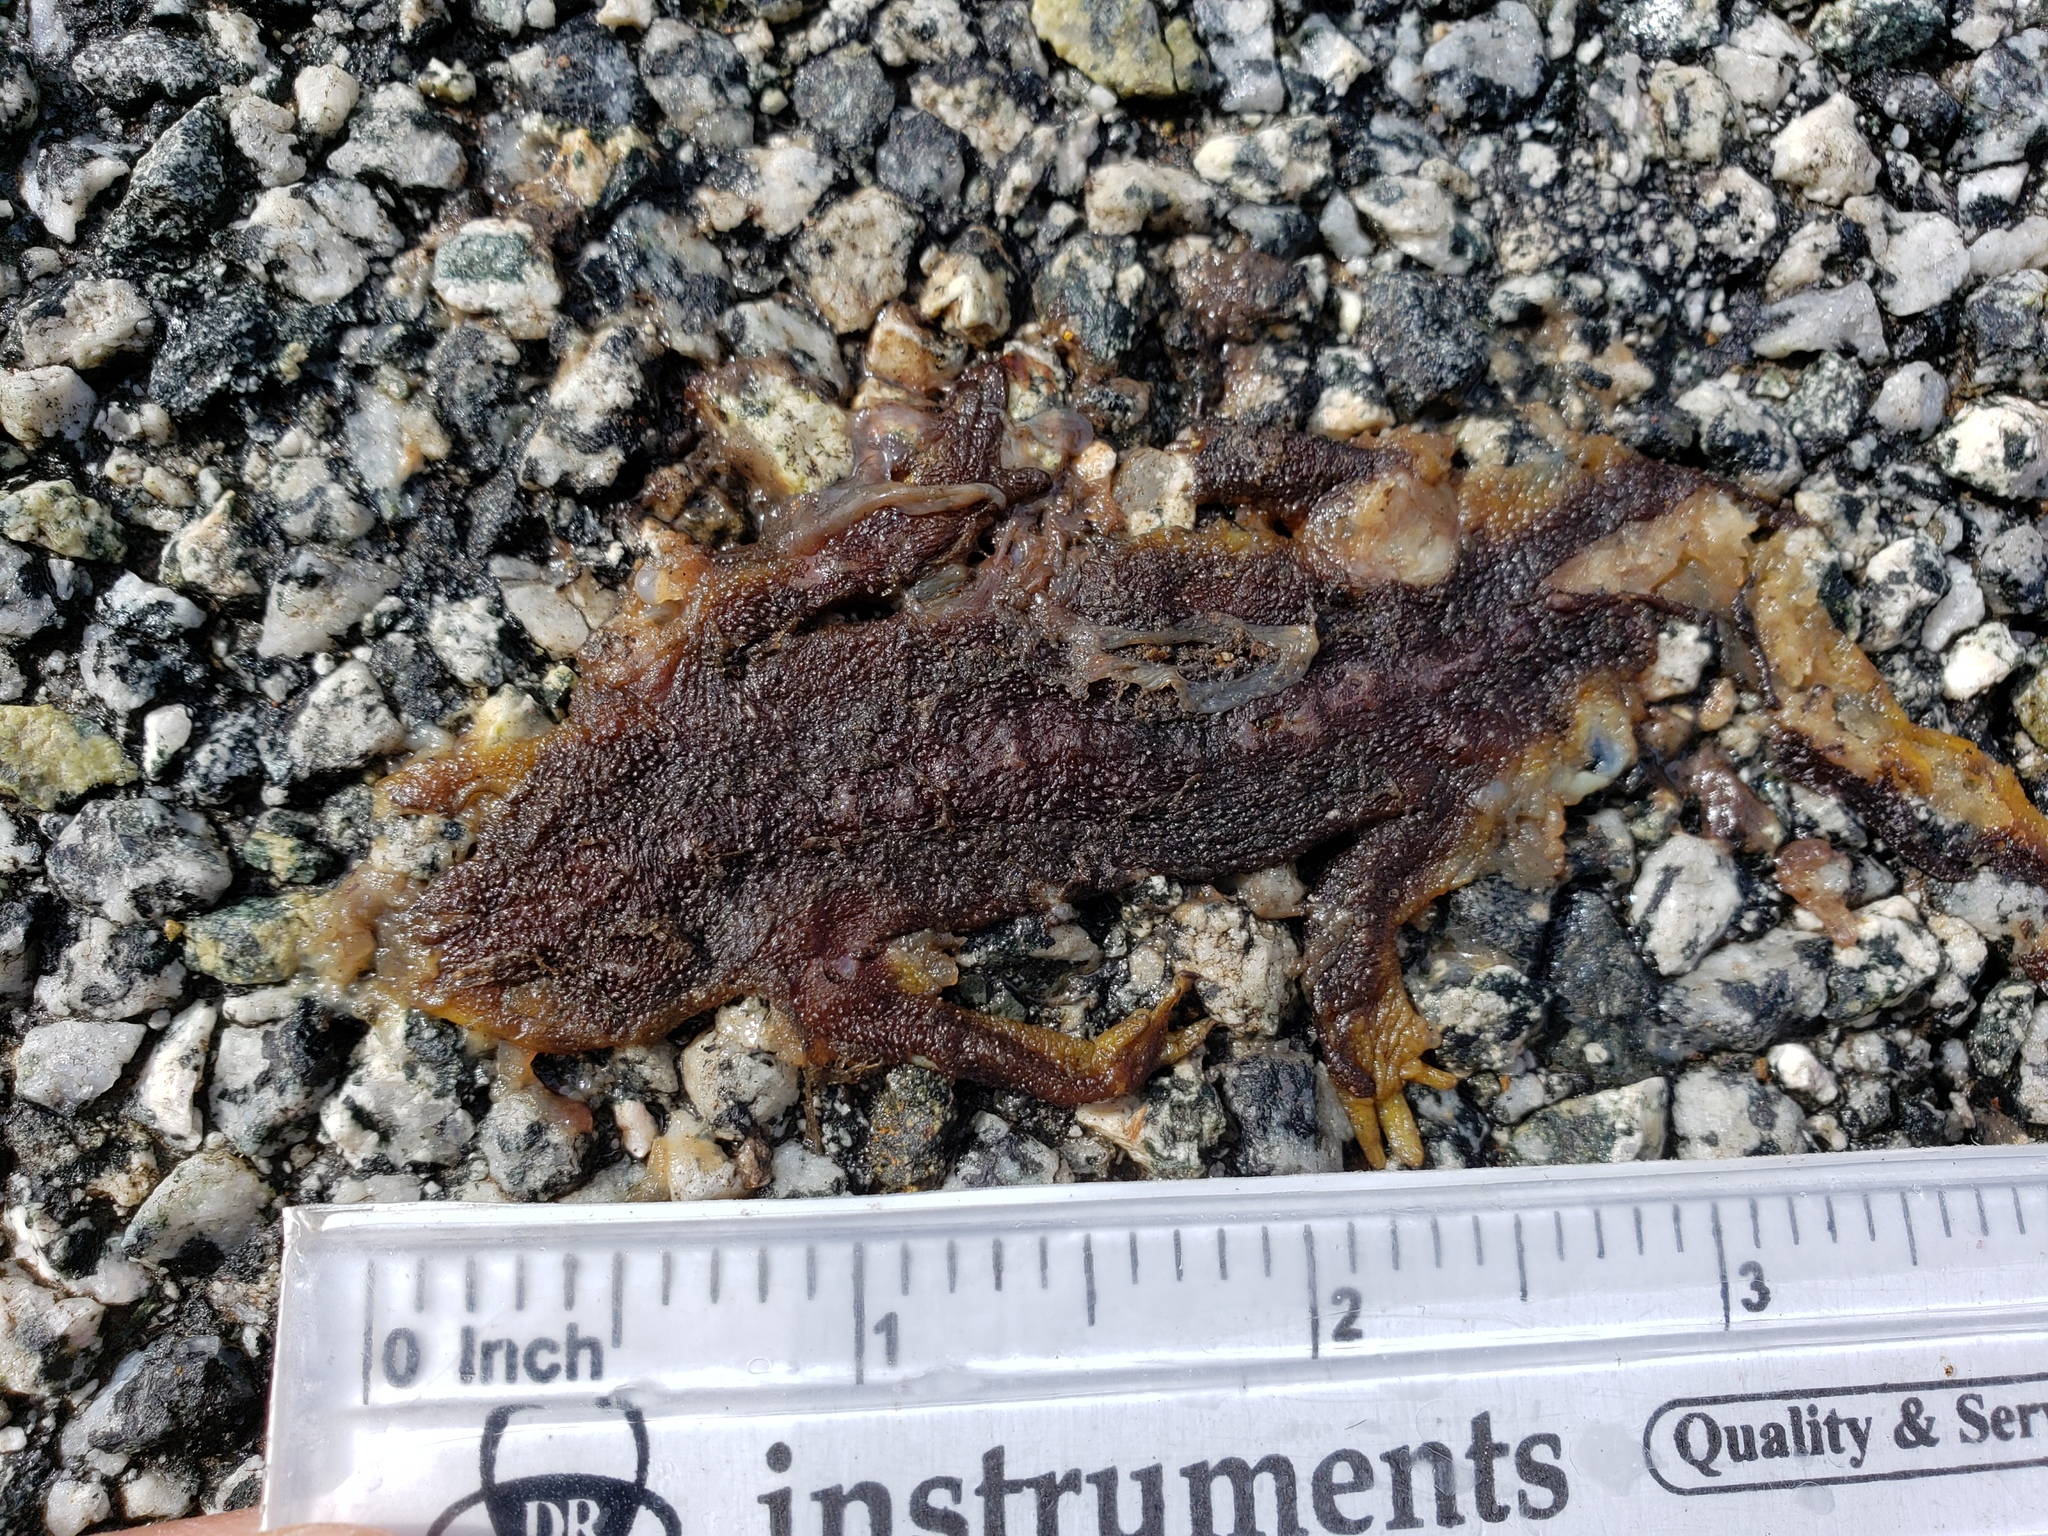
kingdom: Animalia
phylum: Chordata
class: Amphibia
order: Caudata
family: Salamandridae
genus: Taricha
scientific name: Taricha
